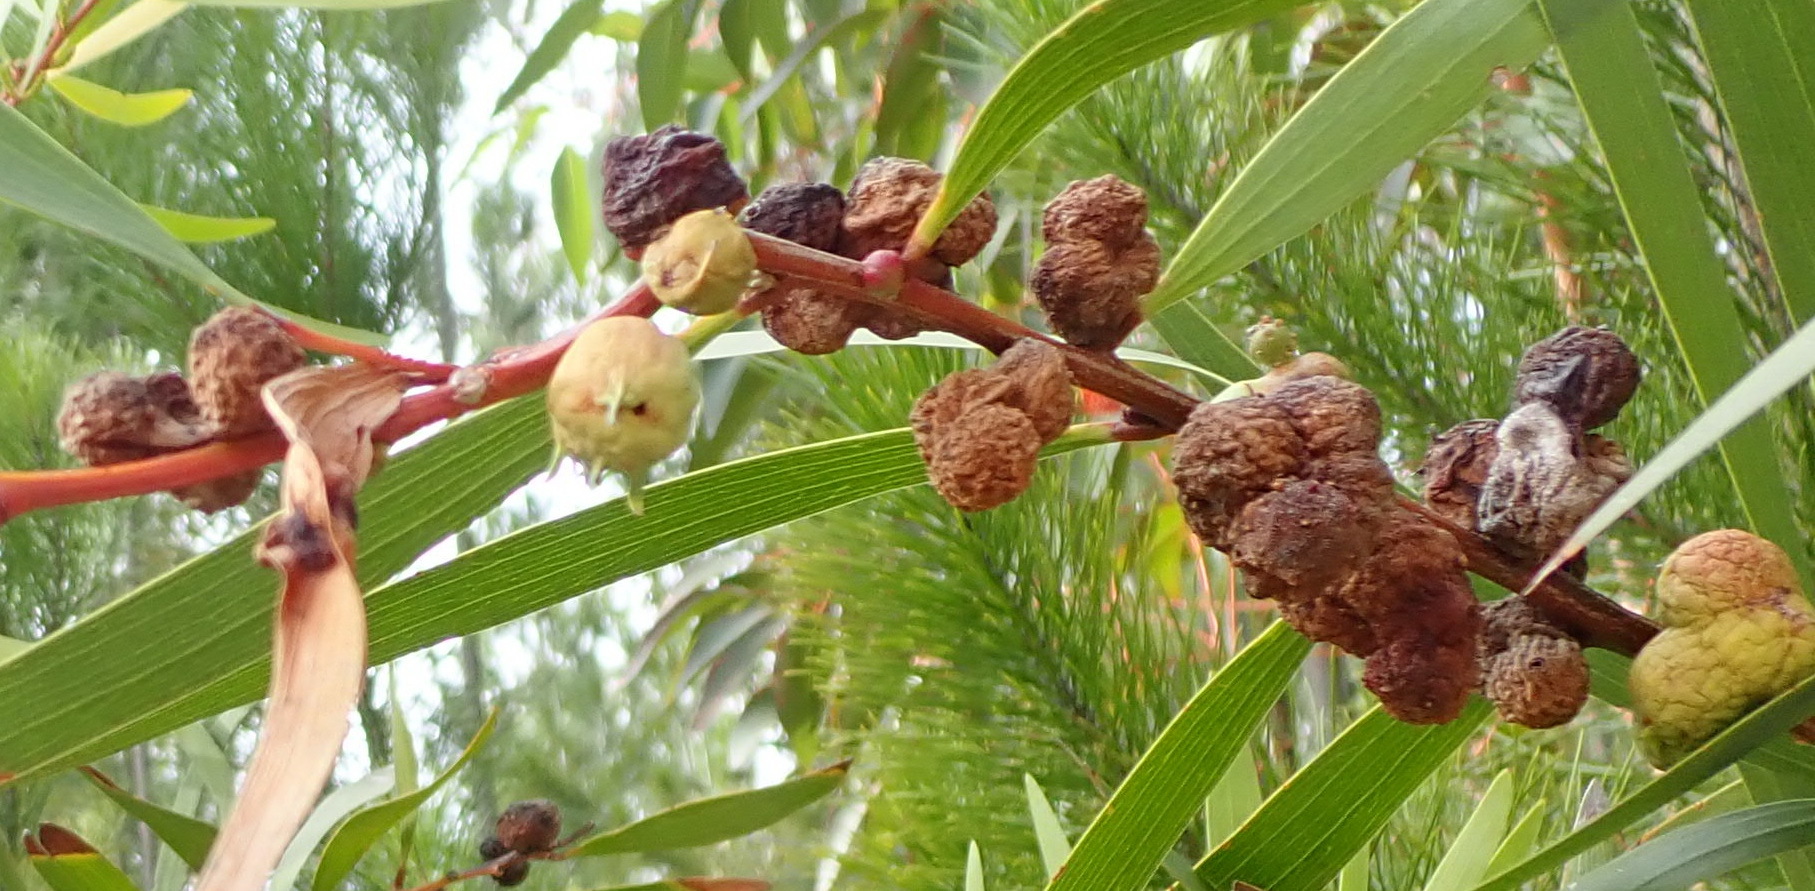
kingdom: Animalia
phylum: Arthropoda
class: Insecta
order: Hymenoptera
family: Pteromalidae
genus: Trichilogaster
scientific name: Trichilogaster acaciaelongifoliae
